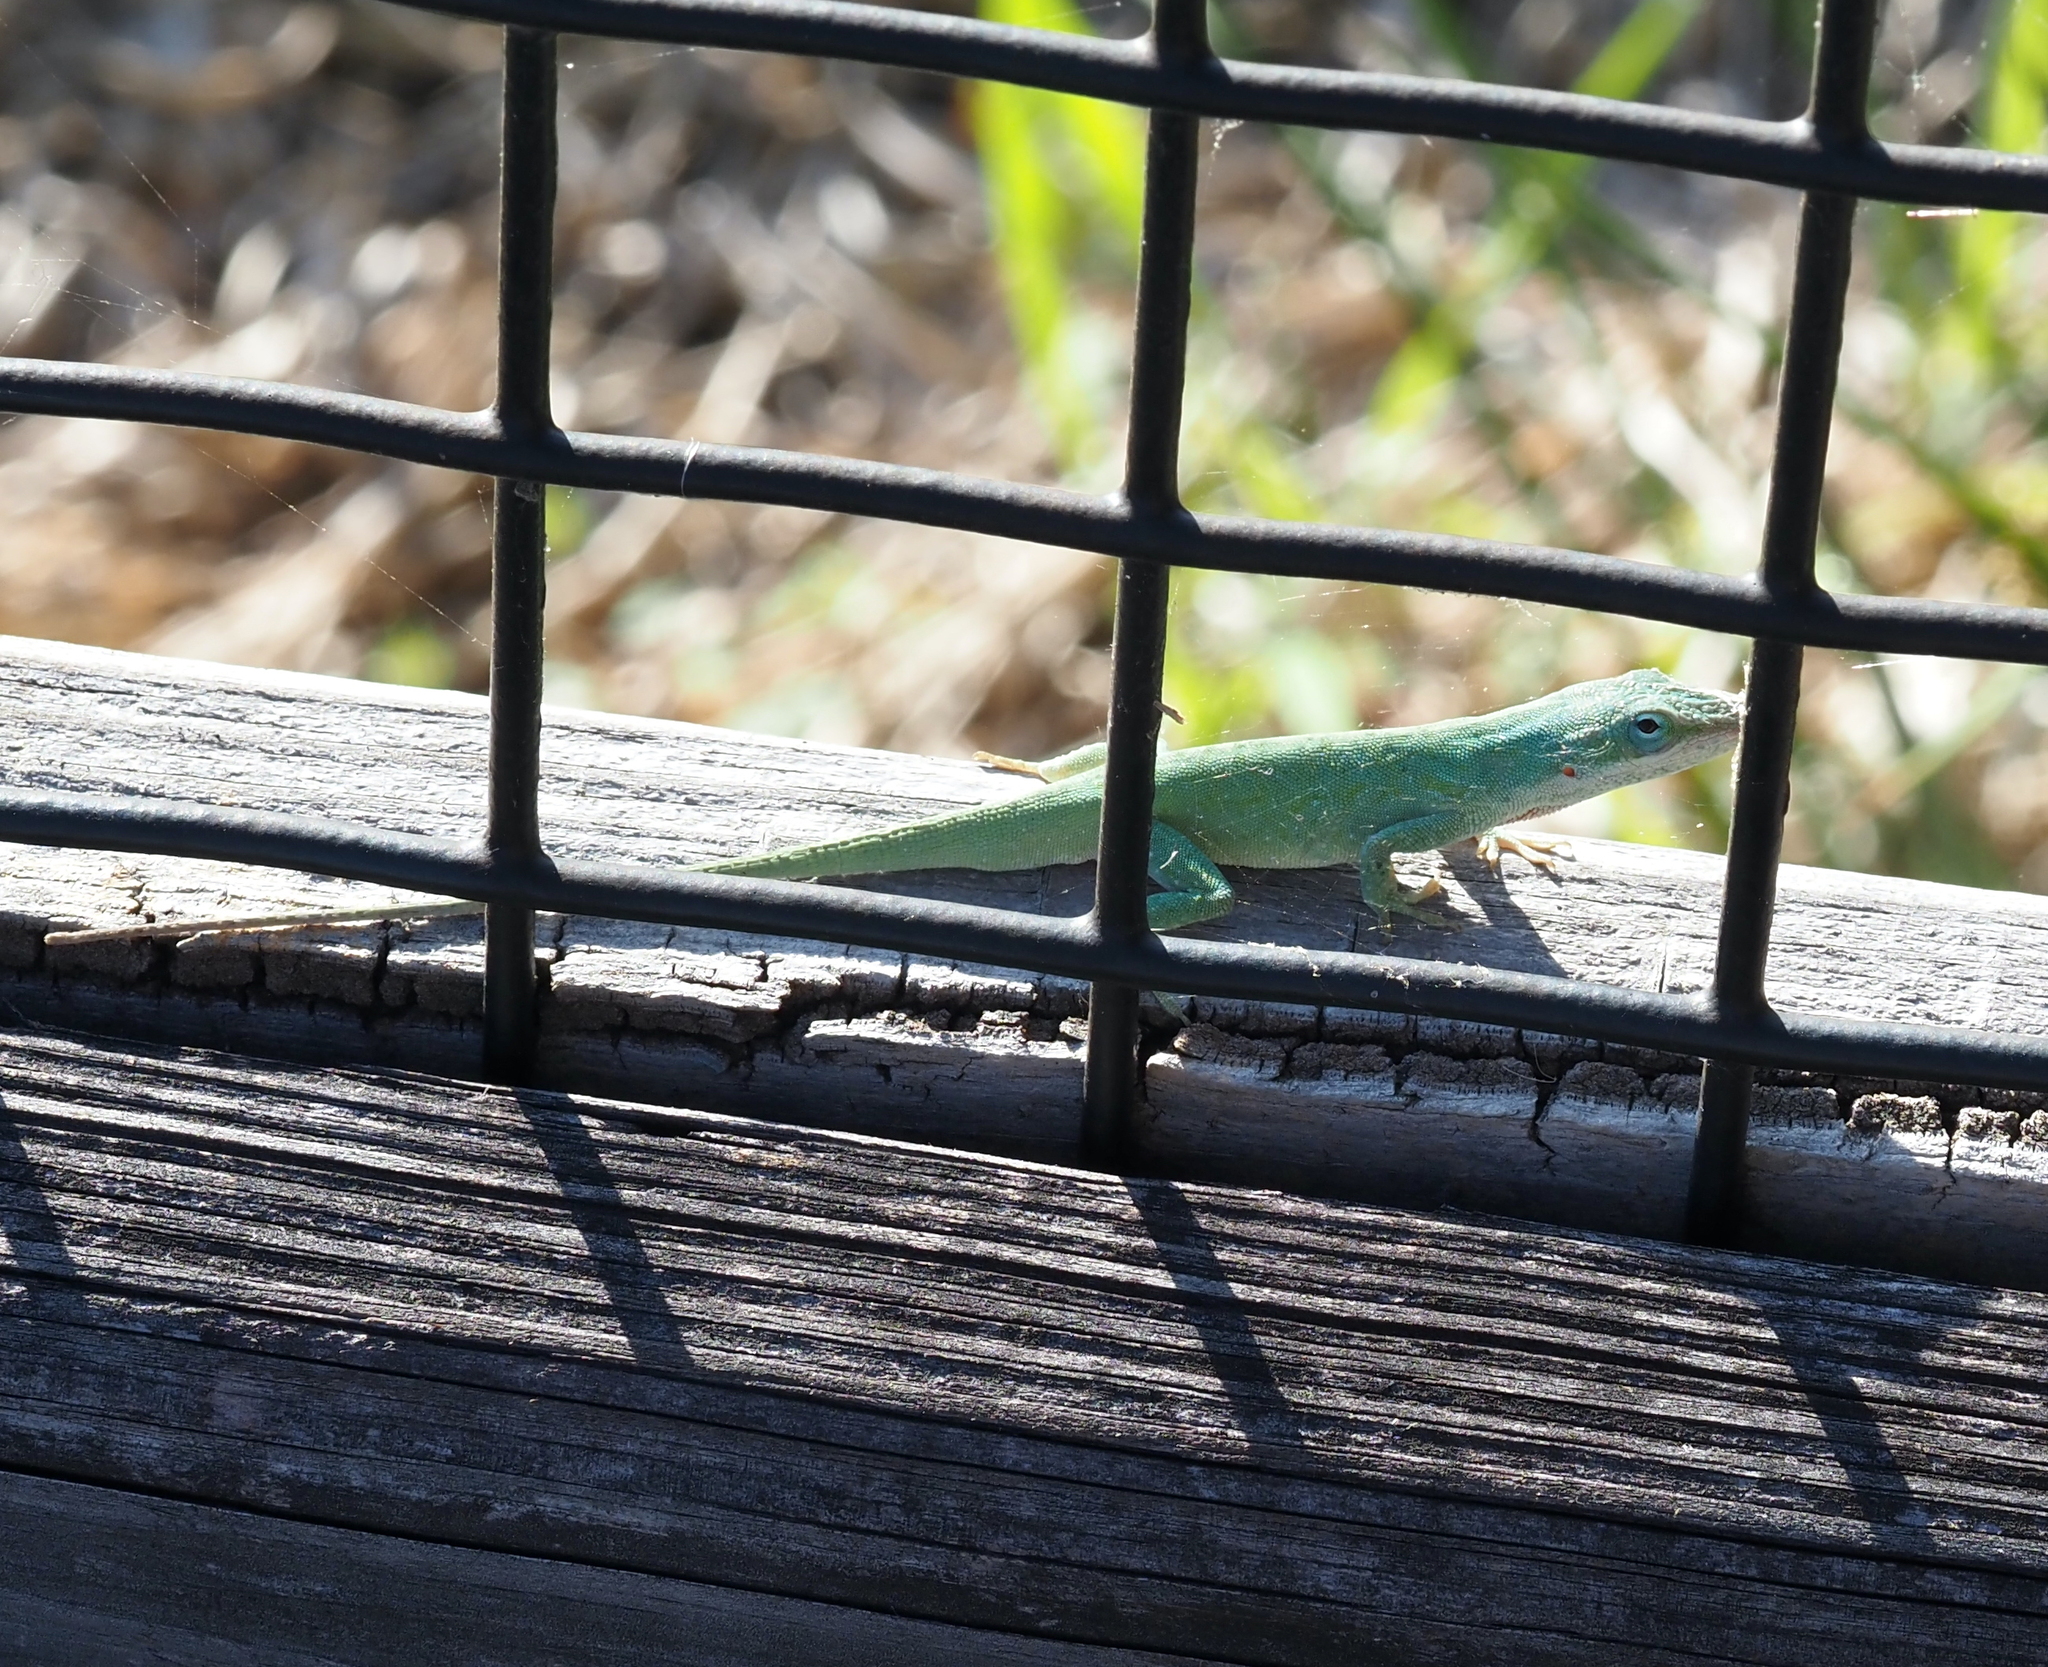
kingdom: Animalia
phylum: Chordata
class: Squamata
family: Dactyloidae
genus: Anolis
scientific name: Anolis carolinensis
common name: Green anole
